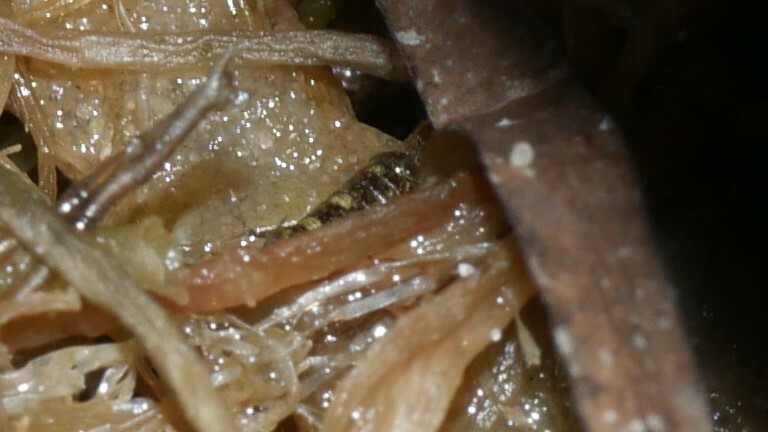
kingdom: Animalia
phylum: Arthropoda
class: Malacostraca
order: Isopoda
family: Ligiidae
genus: Ligia
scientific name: Ligia exotica
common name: Wharf roach
